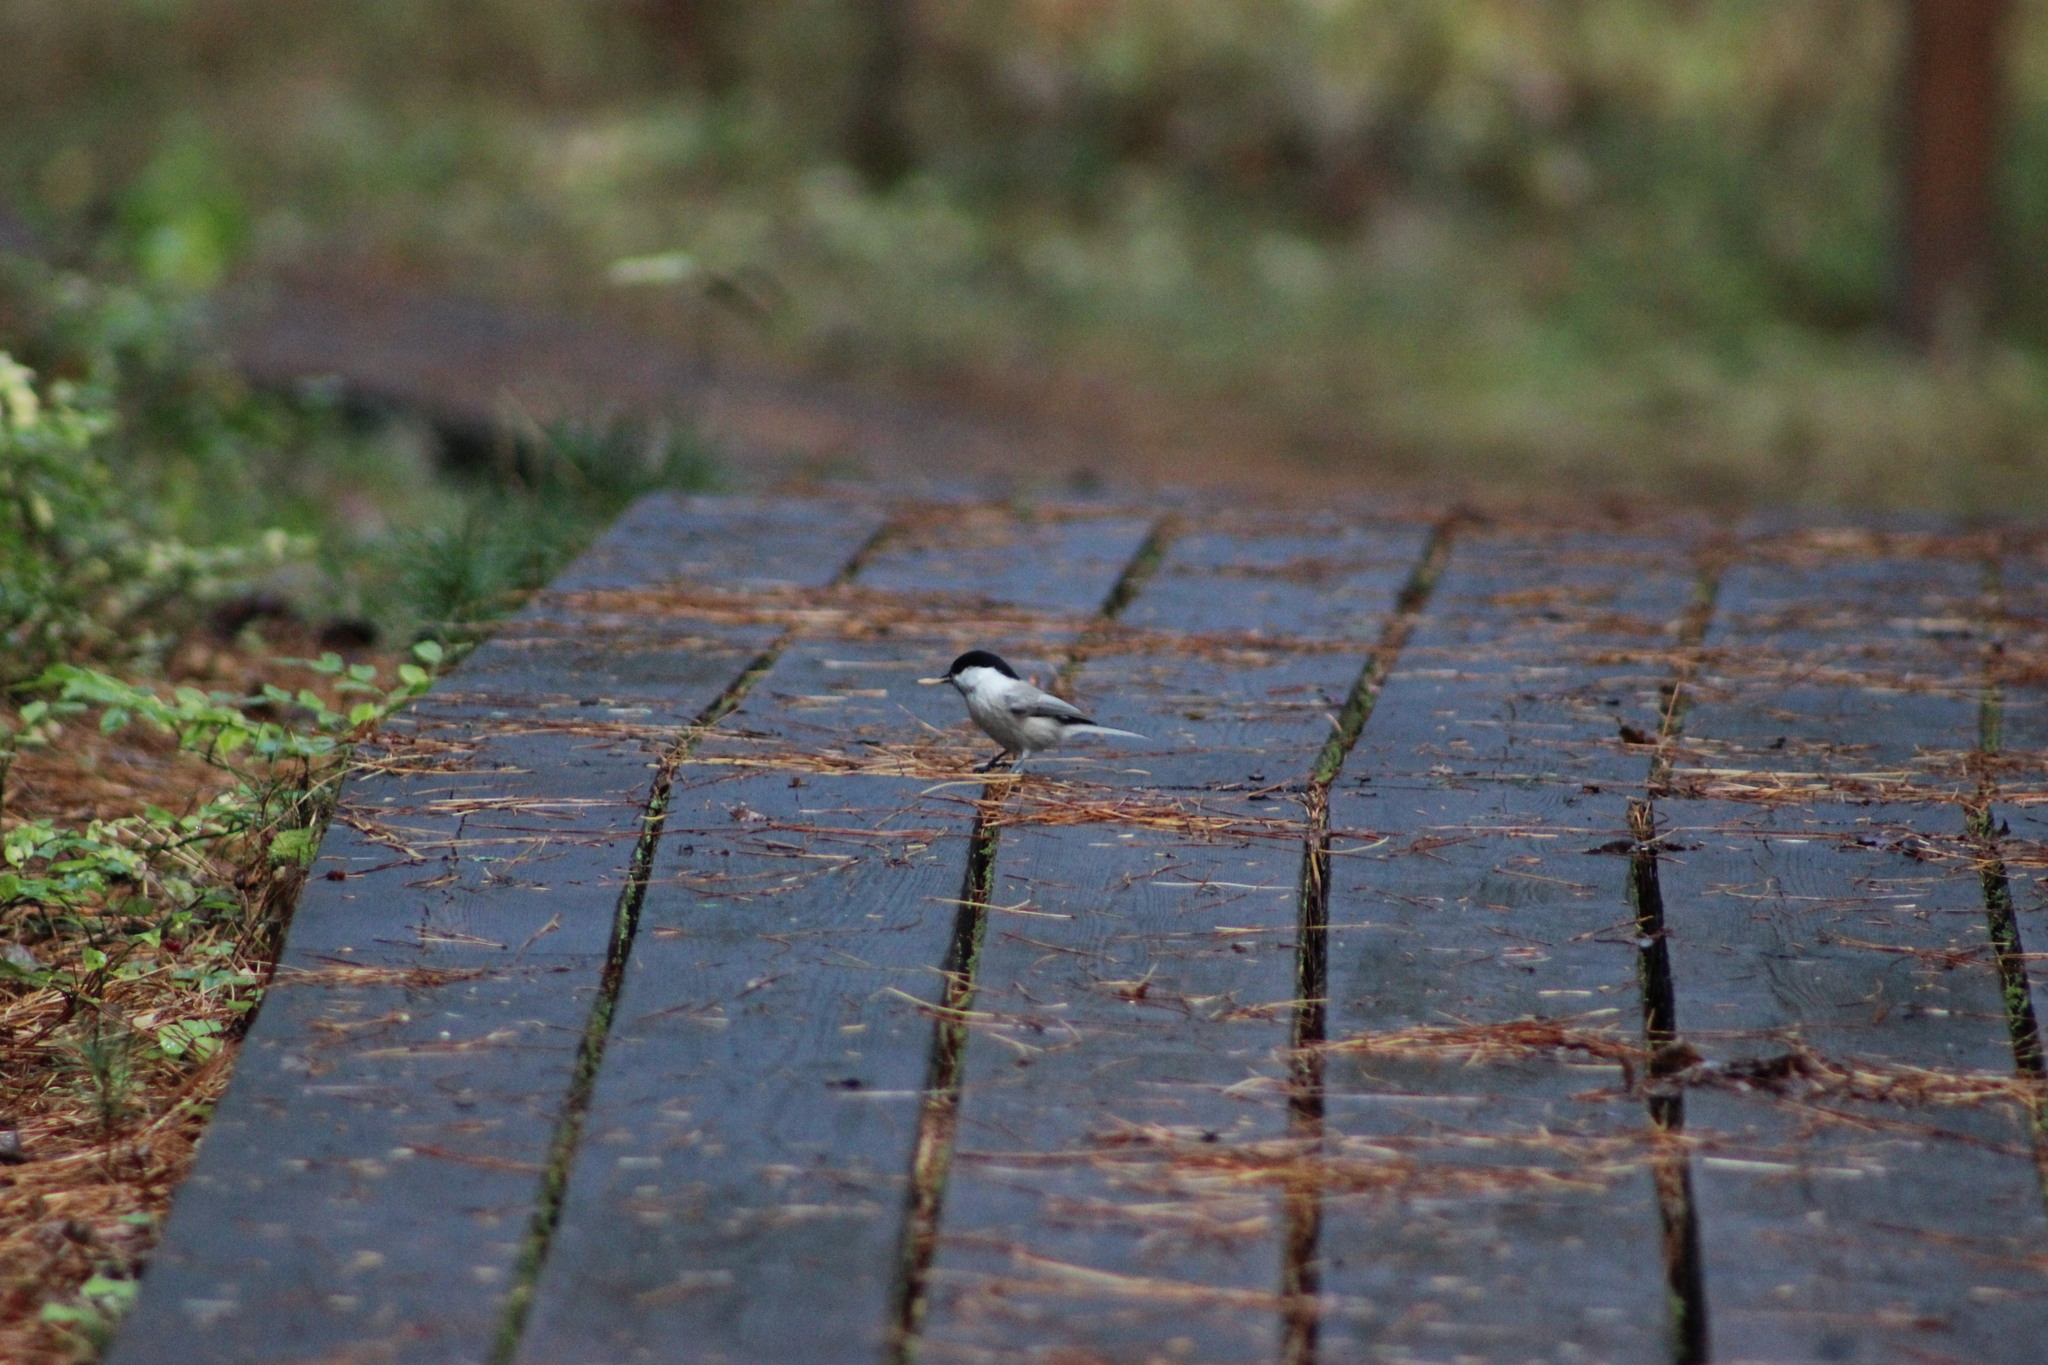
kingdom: Animalia
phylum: Chordata
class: Aves
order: Passeriformes
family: Paridae
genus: Poecile
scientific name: Poecile montanus
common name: Willow tit
